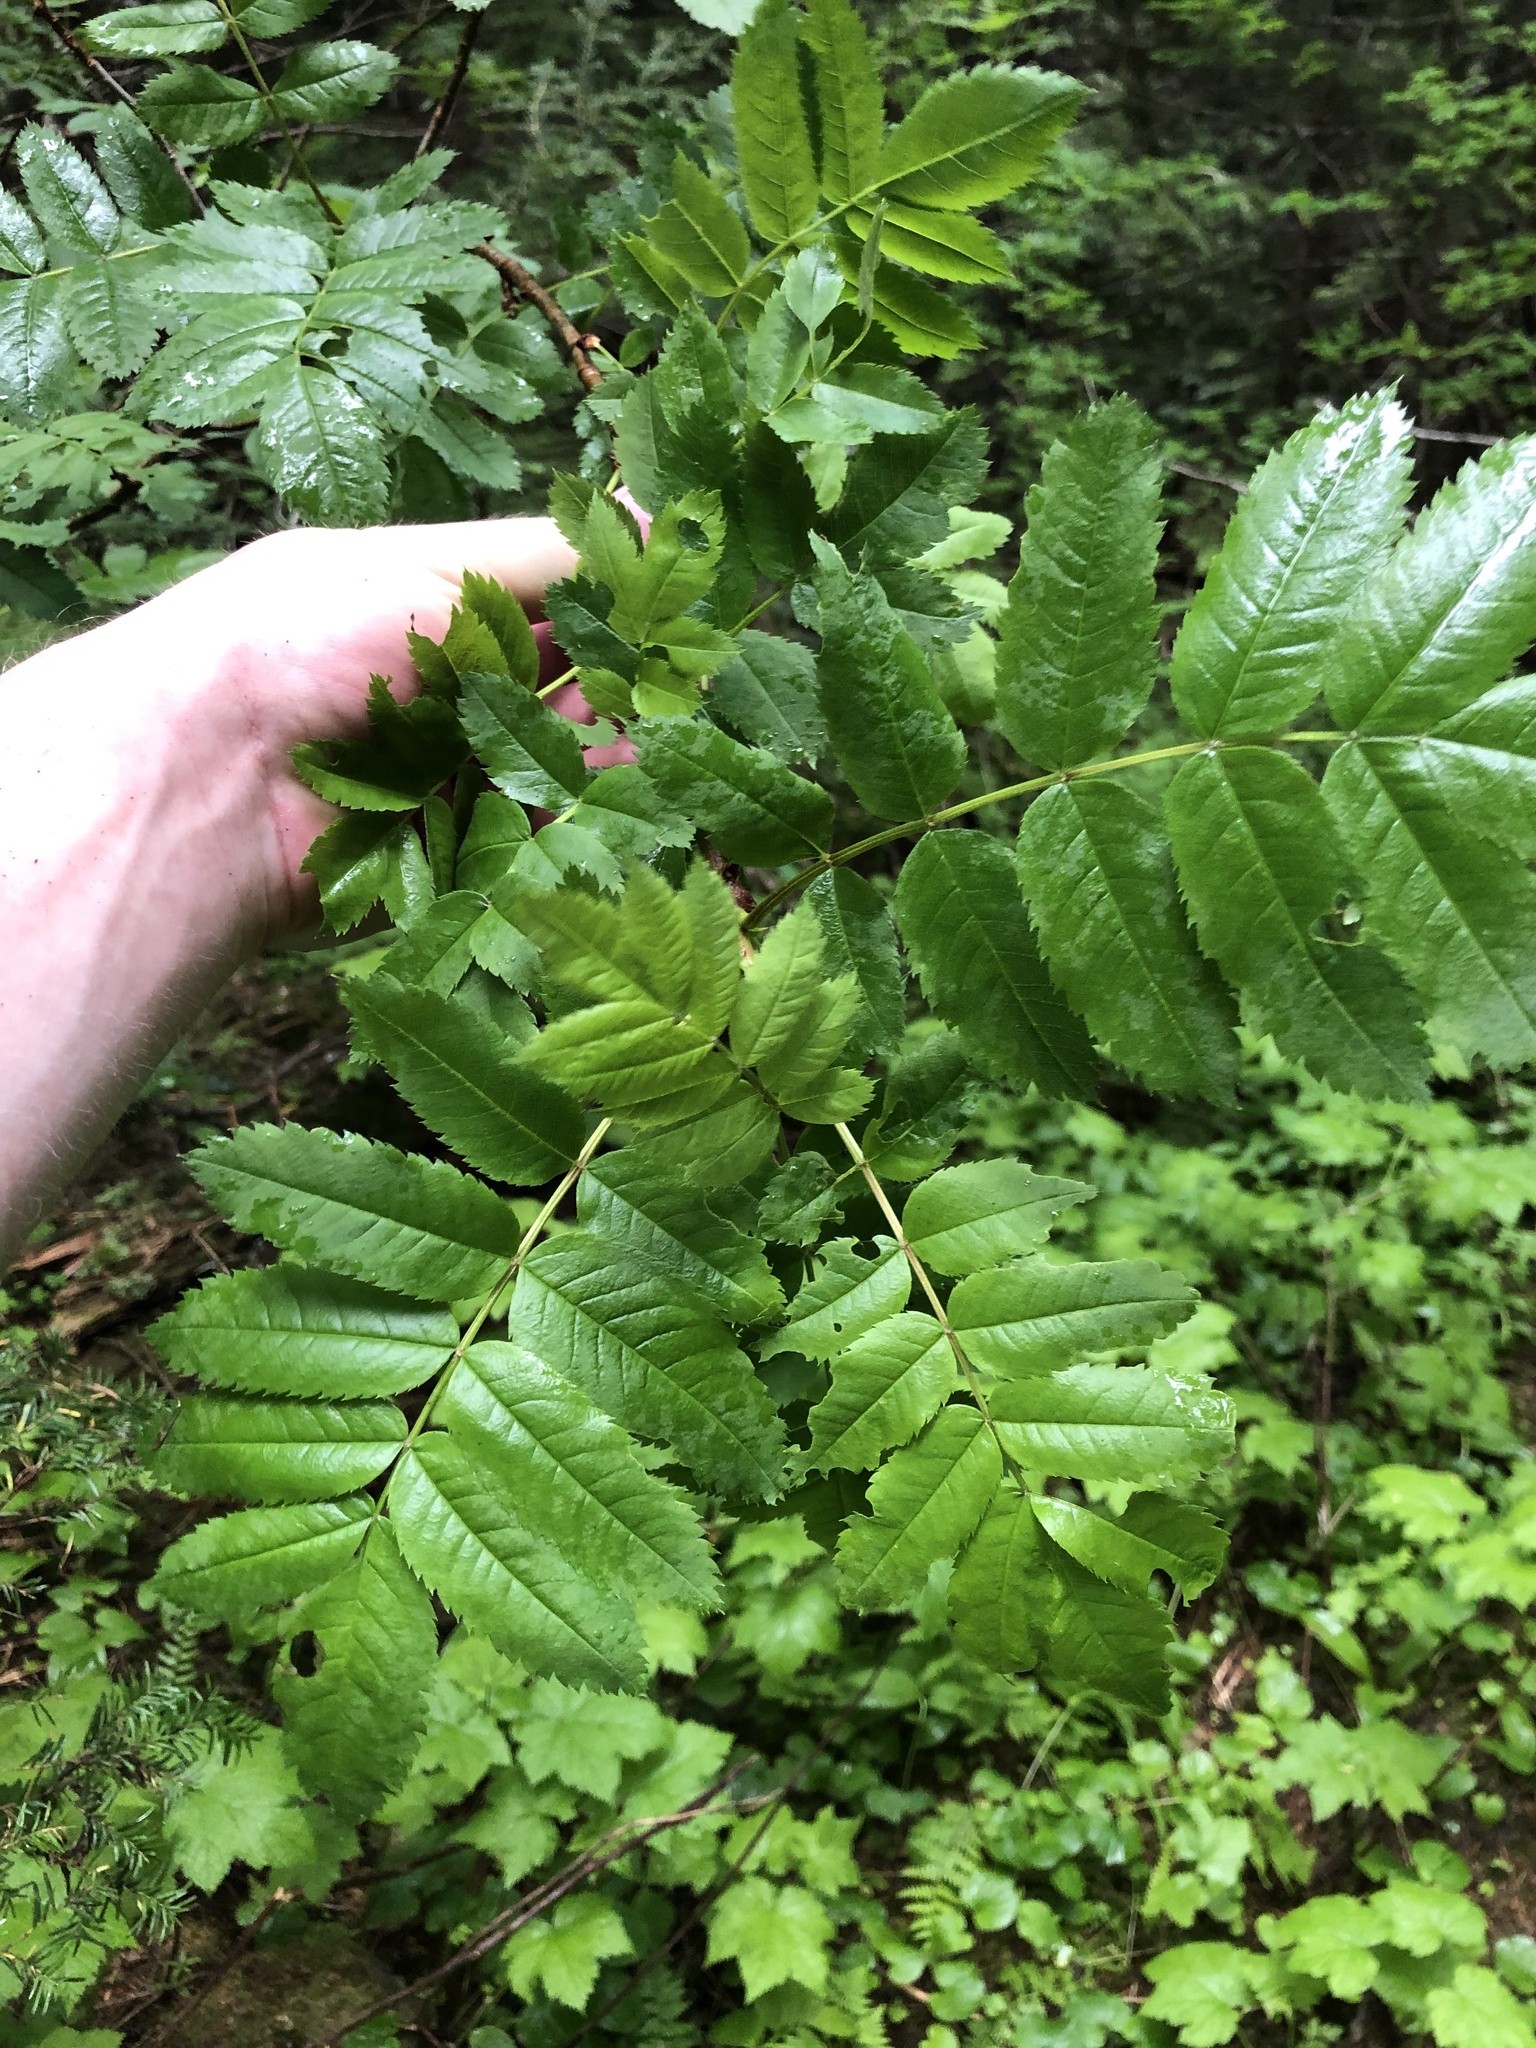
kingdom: Plantae
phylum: Tracheophyta
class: Magnoliopsida
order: Rosales
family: Rosaceae
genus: Sorbus
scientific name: Sorbus scopulina
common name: Greene's mountain-ash
